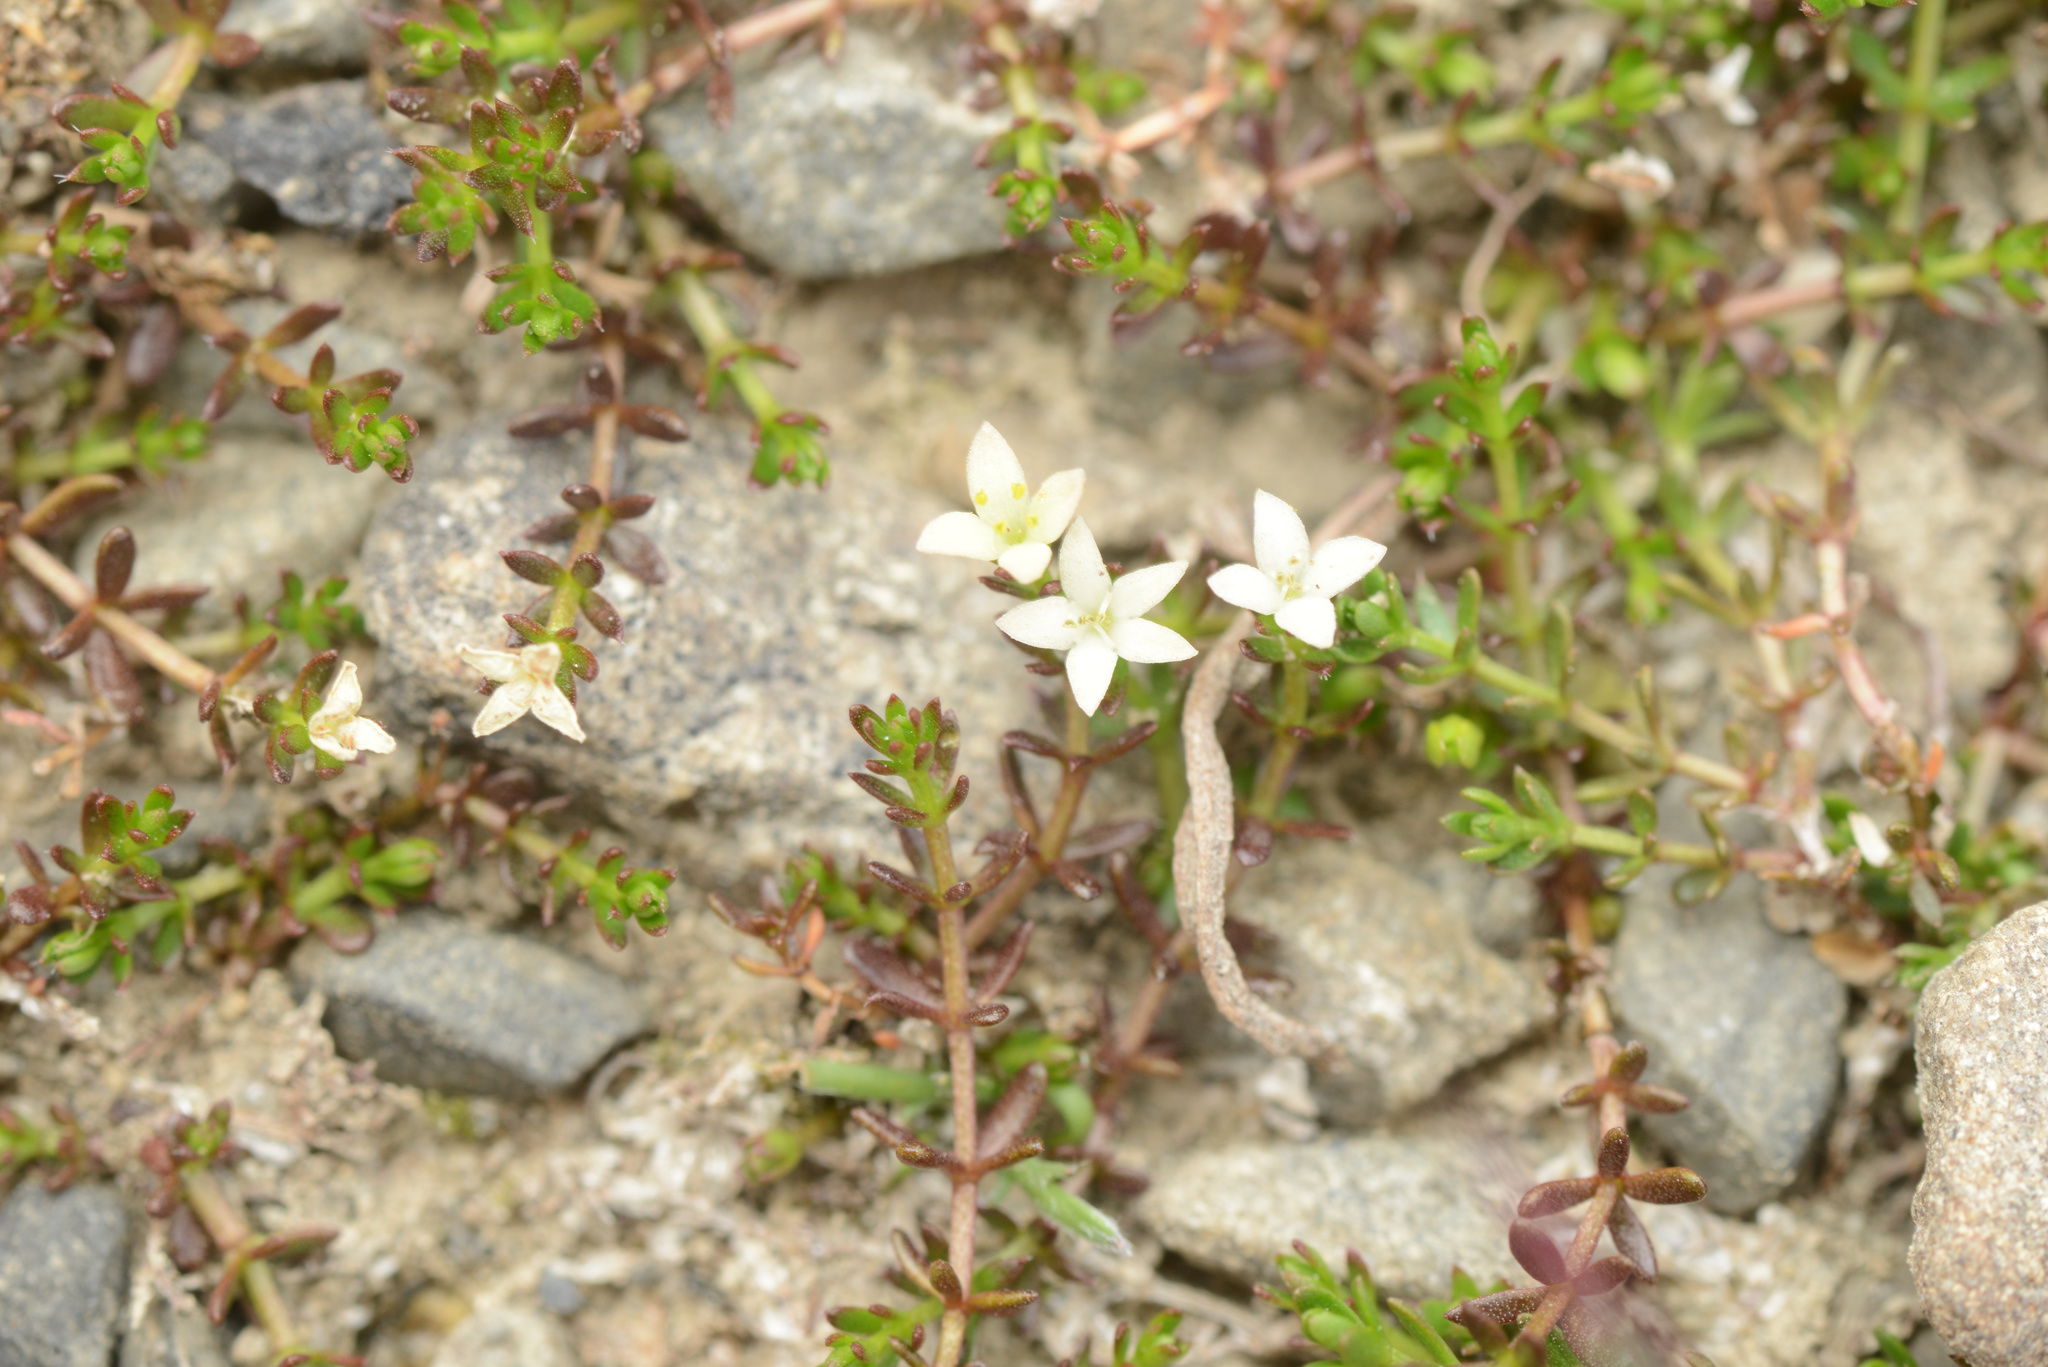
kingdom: Plantae
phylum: Tracheophyta
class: Magnoliopsida
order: Gentianales
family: Rubiaceae
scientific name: Rubiaceae
